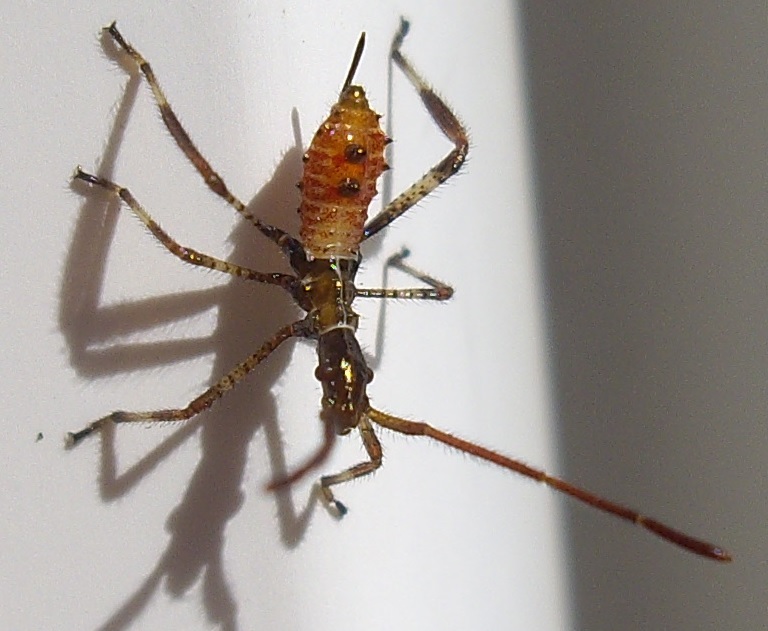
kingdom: Animalia
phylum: Arthropoda
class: Insecta
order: Hemiptera
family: Coreidae
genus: Leptoglossus
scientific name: Leptoglossus occidentalis
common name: Western conifer-seed bug
